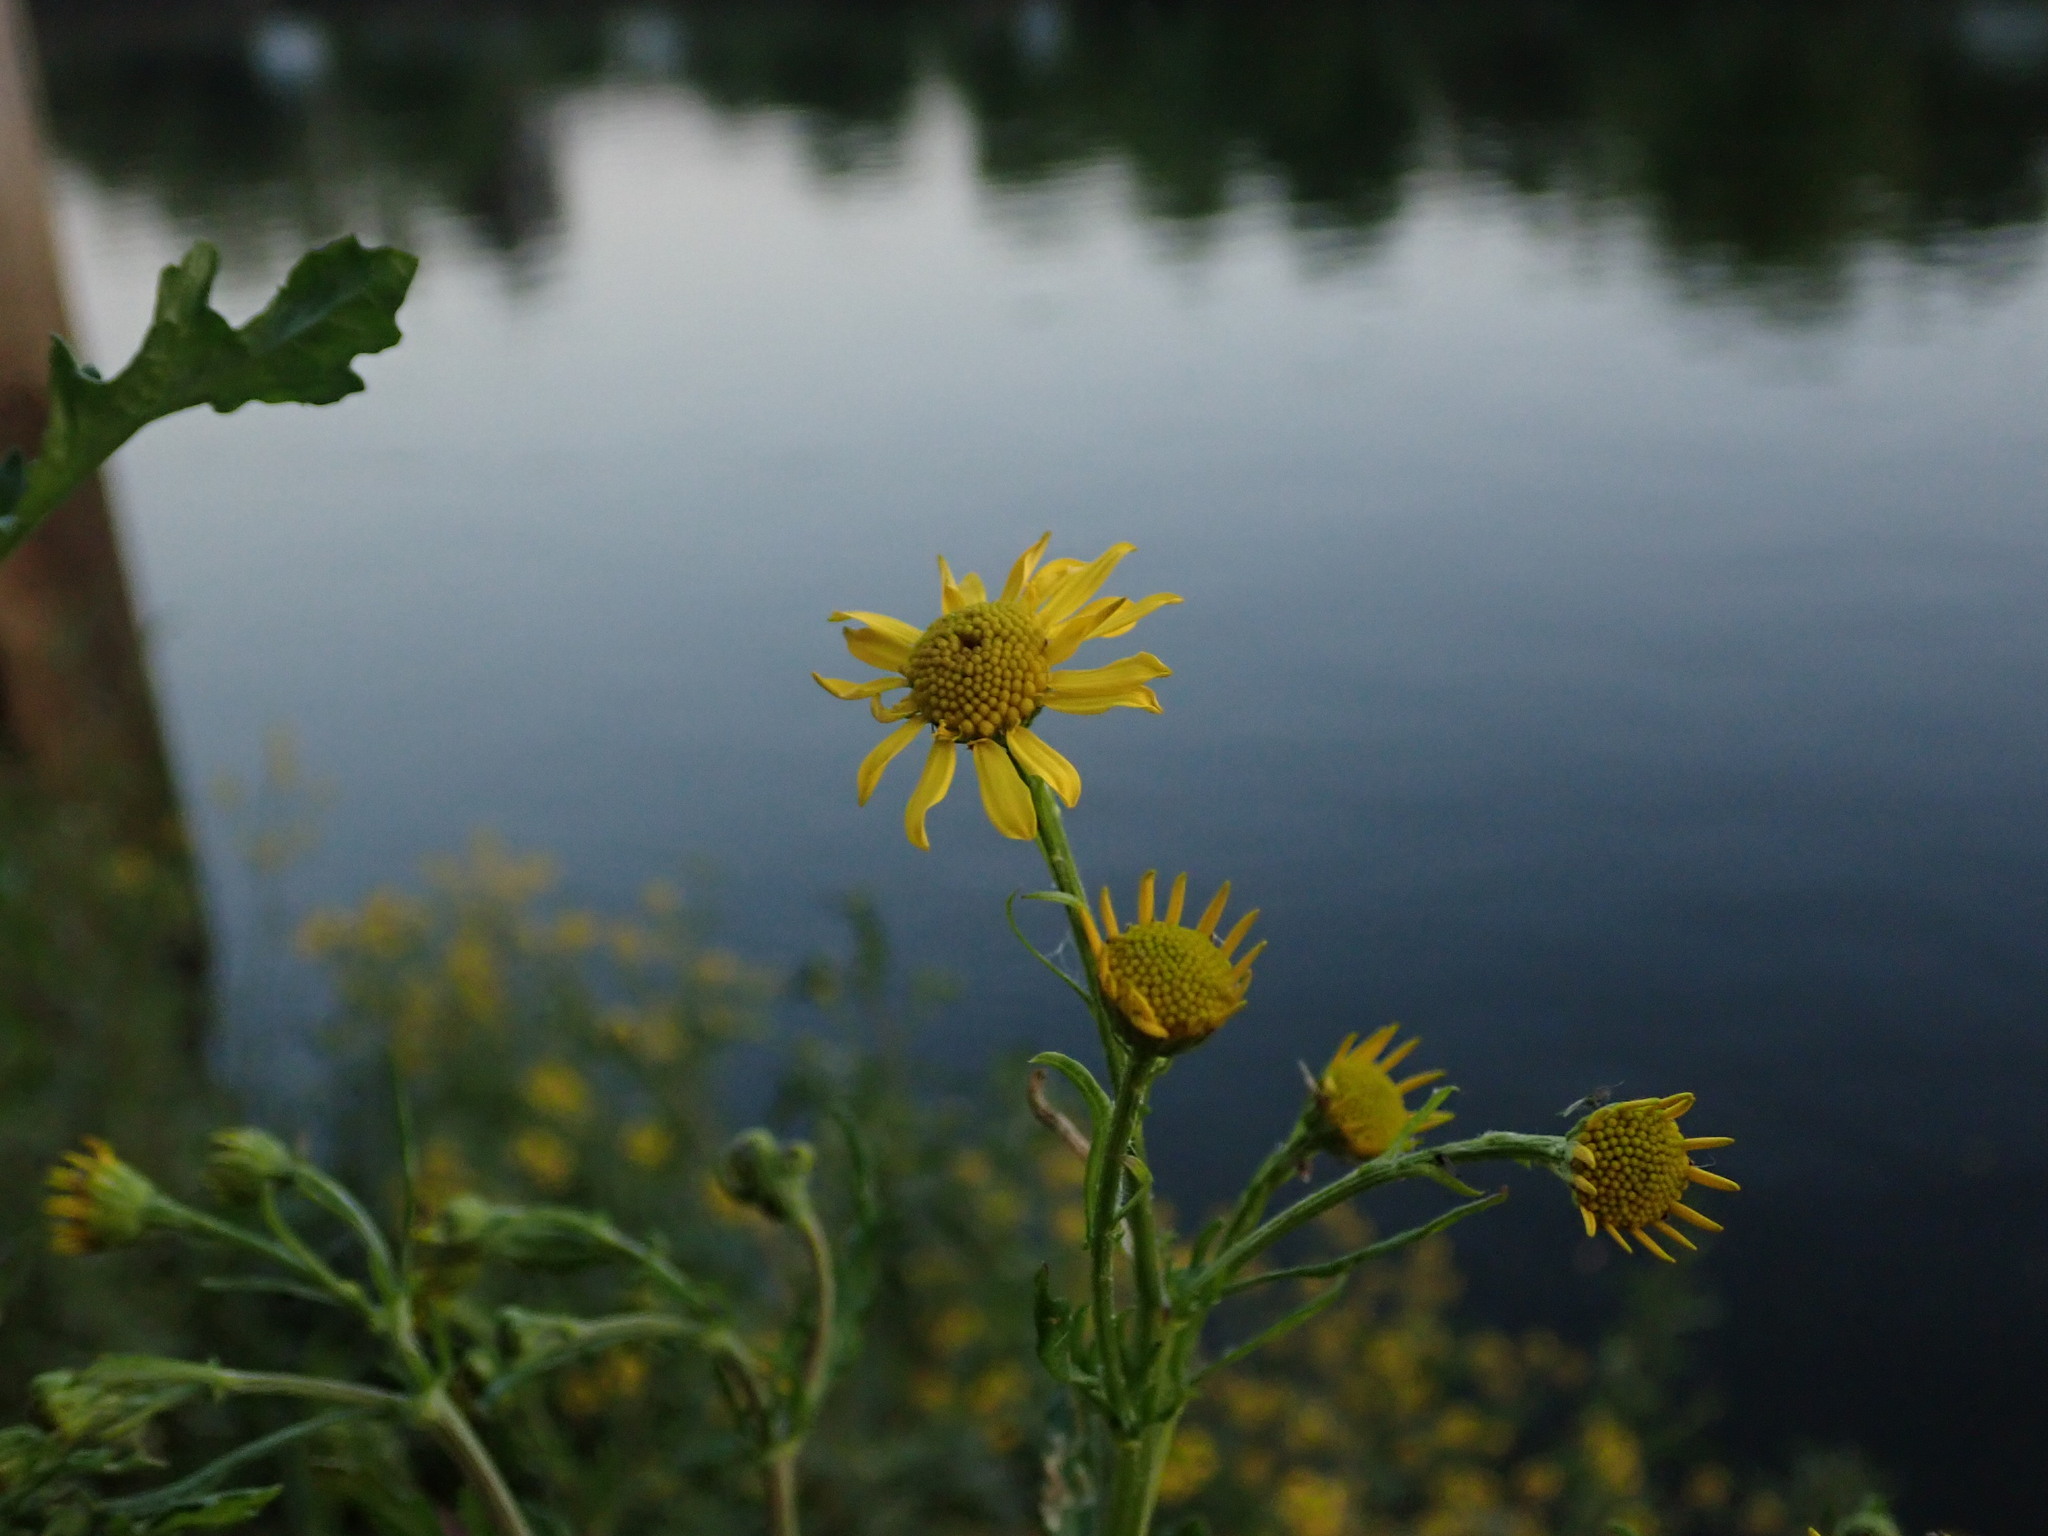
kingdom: Plantae
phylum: Tracheophyta
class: Magnoliopsida
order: Asterales
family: Asteraceae
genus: Jacobaea
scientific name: Jacobaea aquatica
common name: Water ragwort
